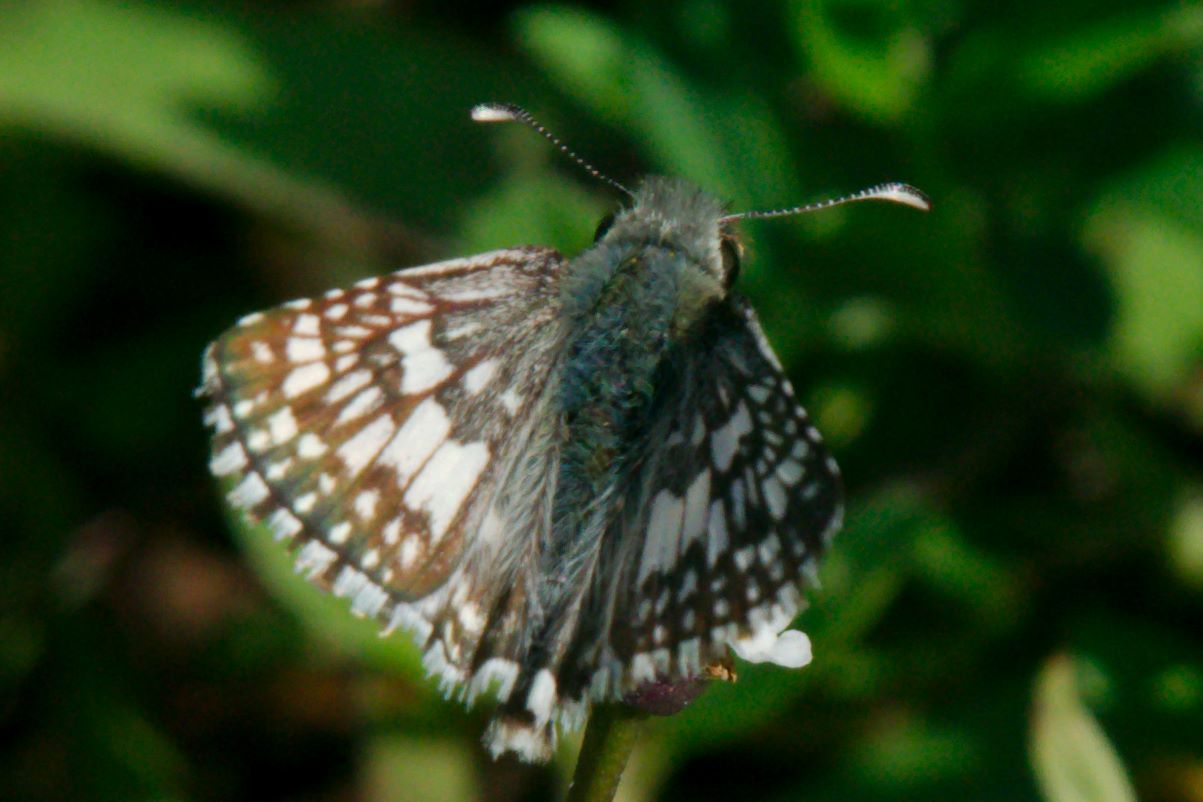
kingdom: Animalia
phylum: Arthropoda
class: Insecta
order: Lepidoptera
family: Hesperiidae
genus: Burnsius
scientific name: Burnsius albezens
